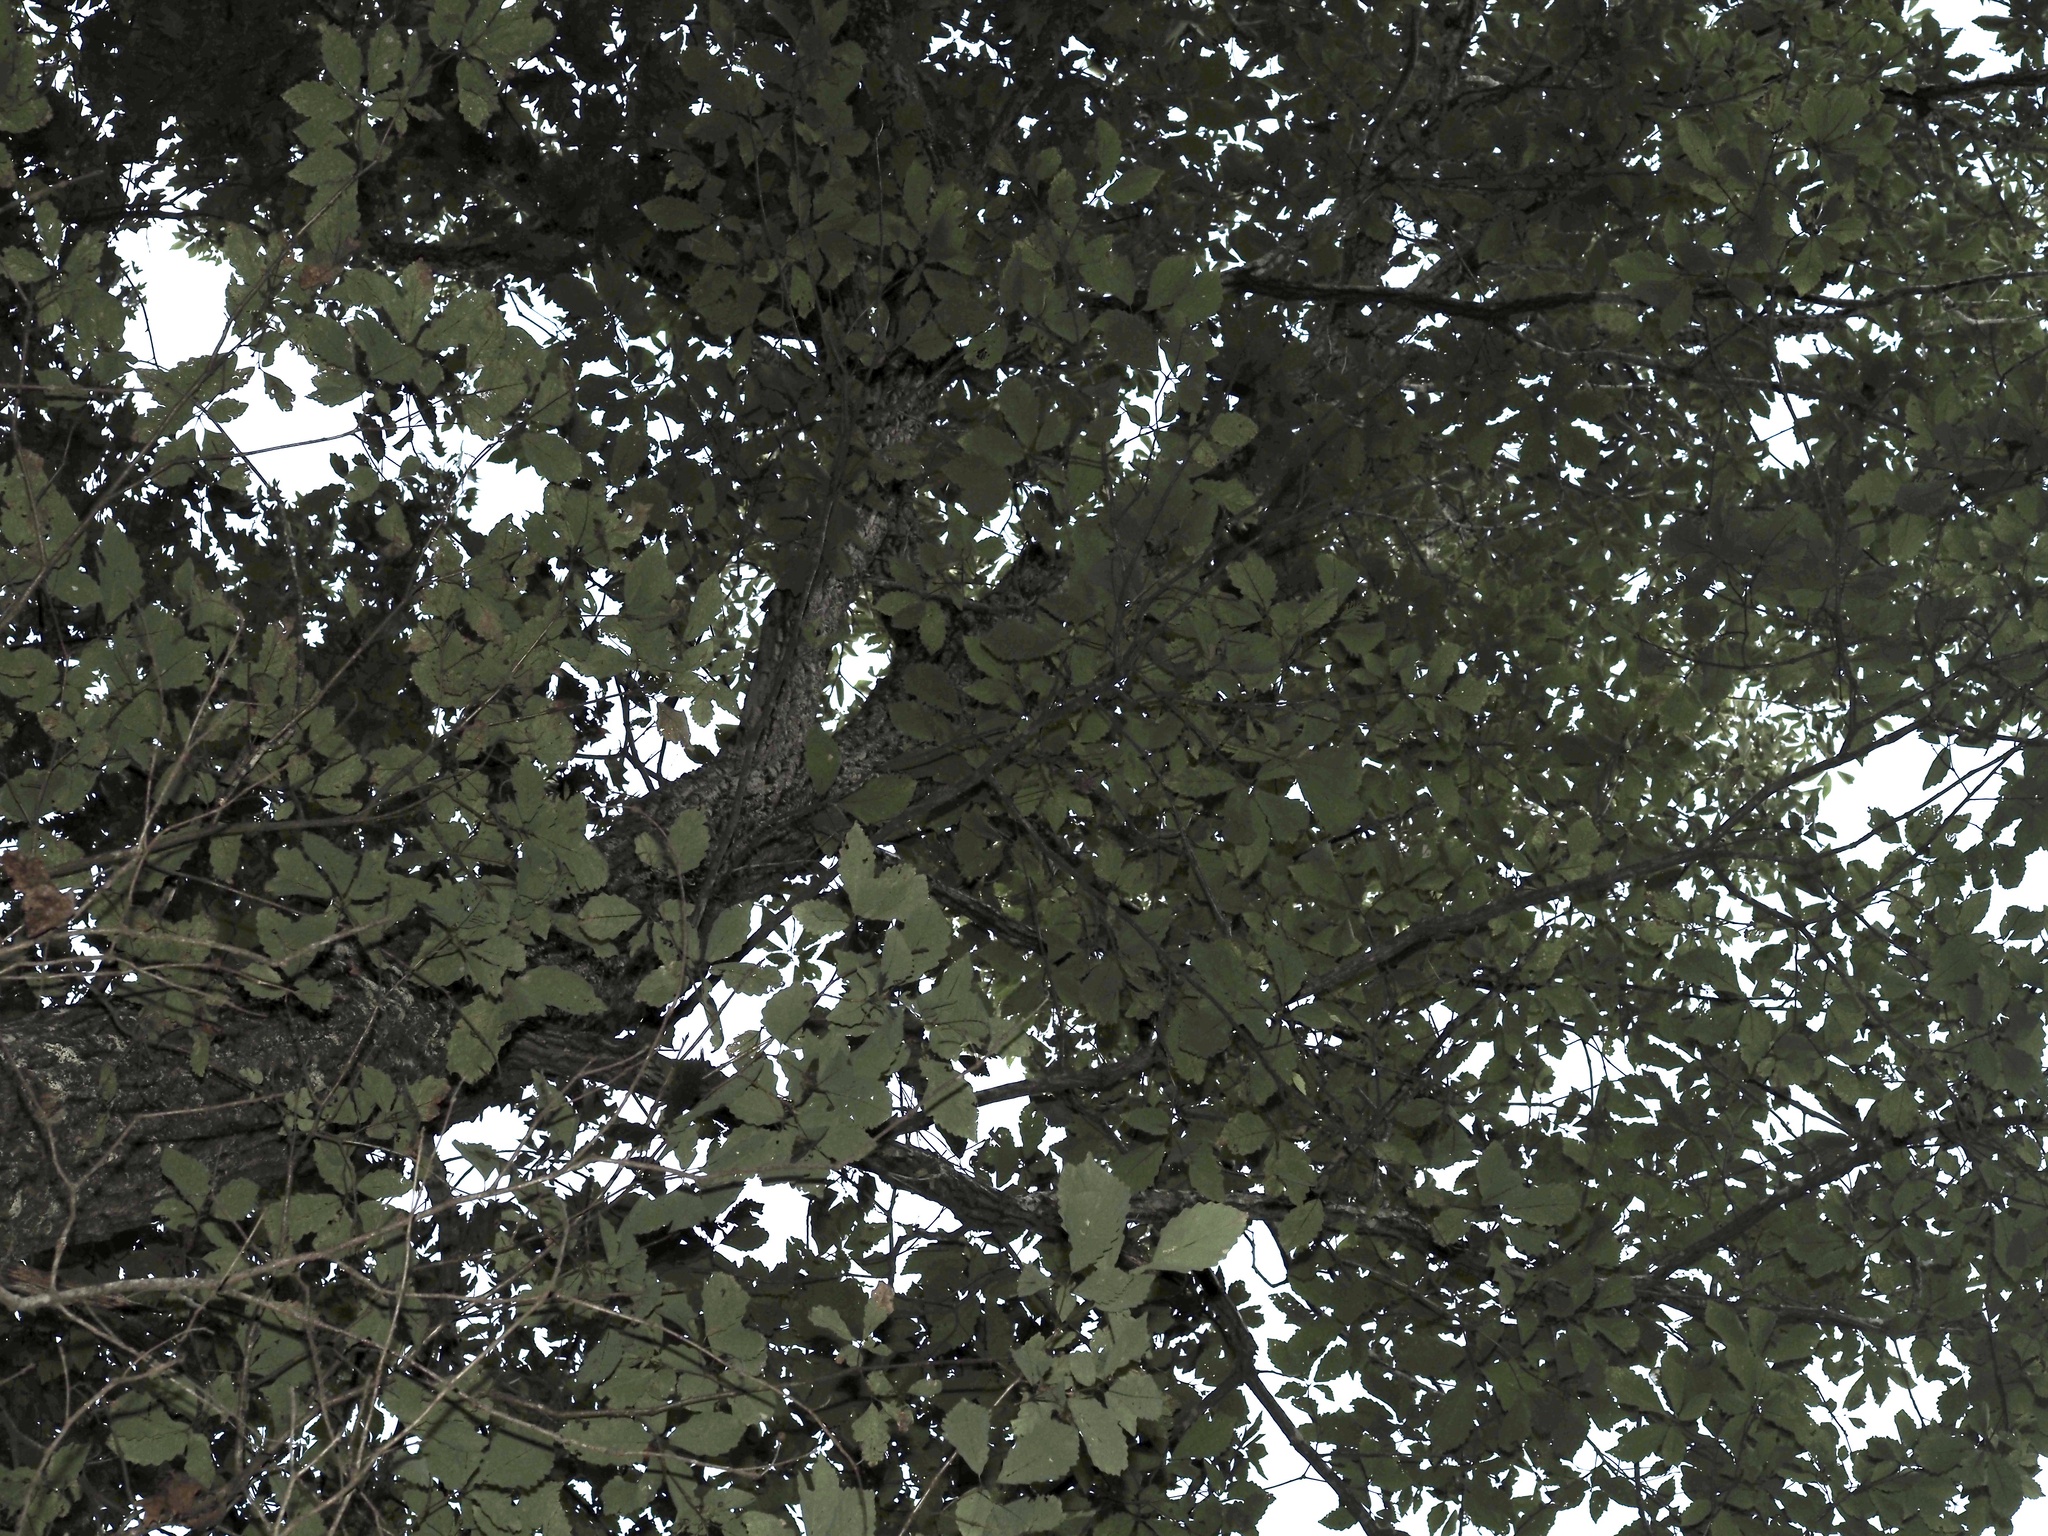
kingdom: Plantae
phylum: Tracheophyta
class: Magnoliopsida
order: Cornales
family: Nyssaceae
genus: Nyssa
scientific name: Nyssa sylvatica
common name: Black tupelo
